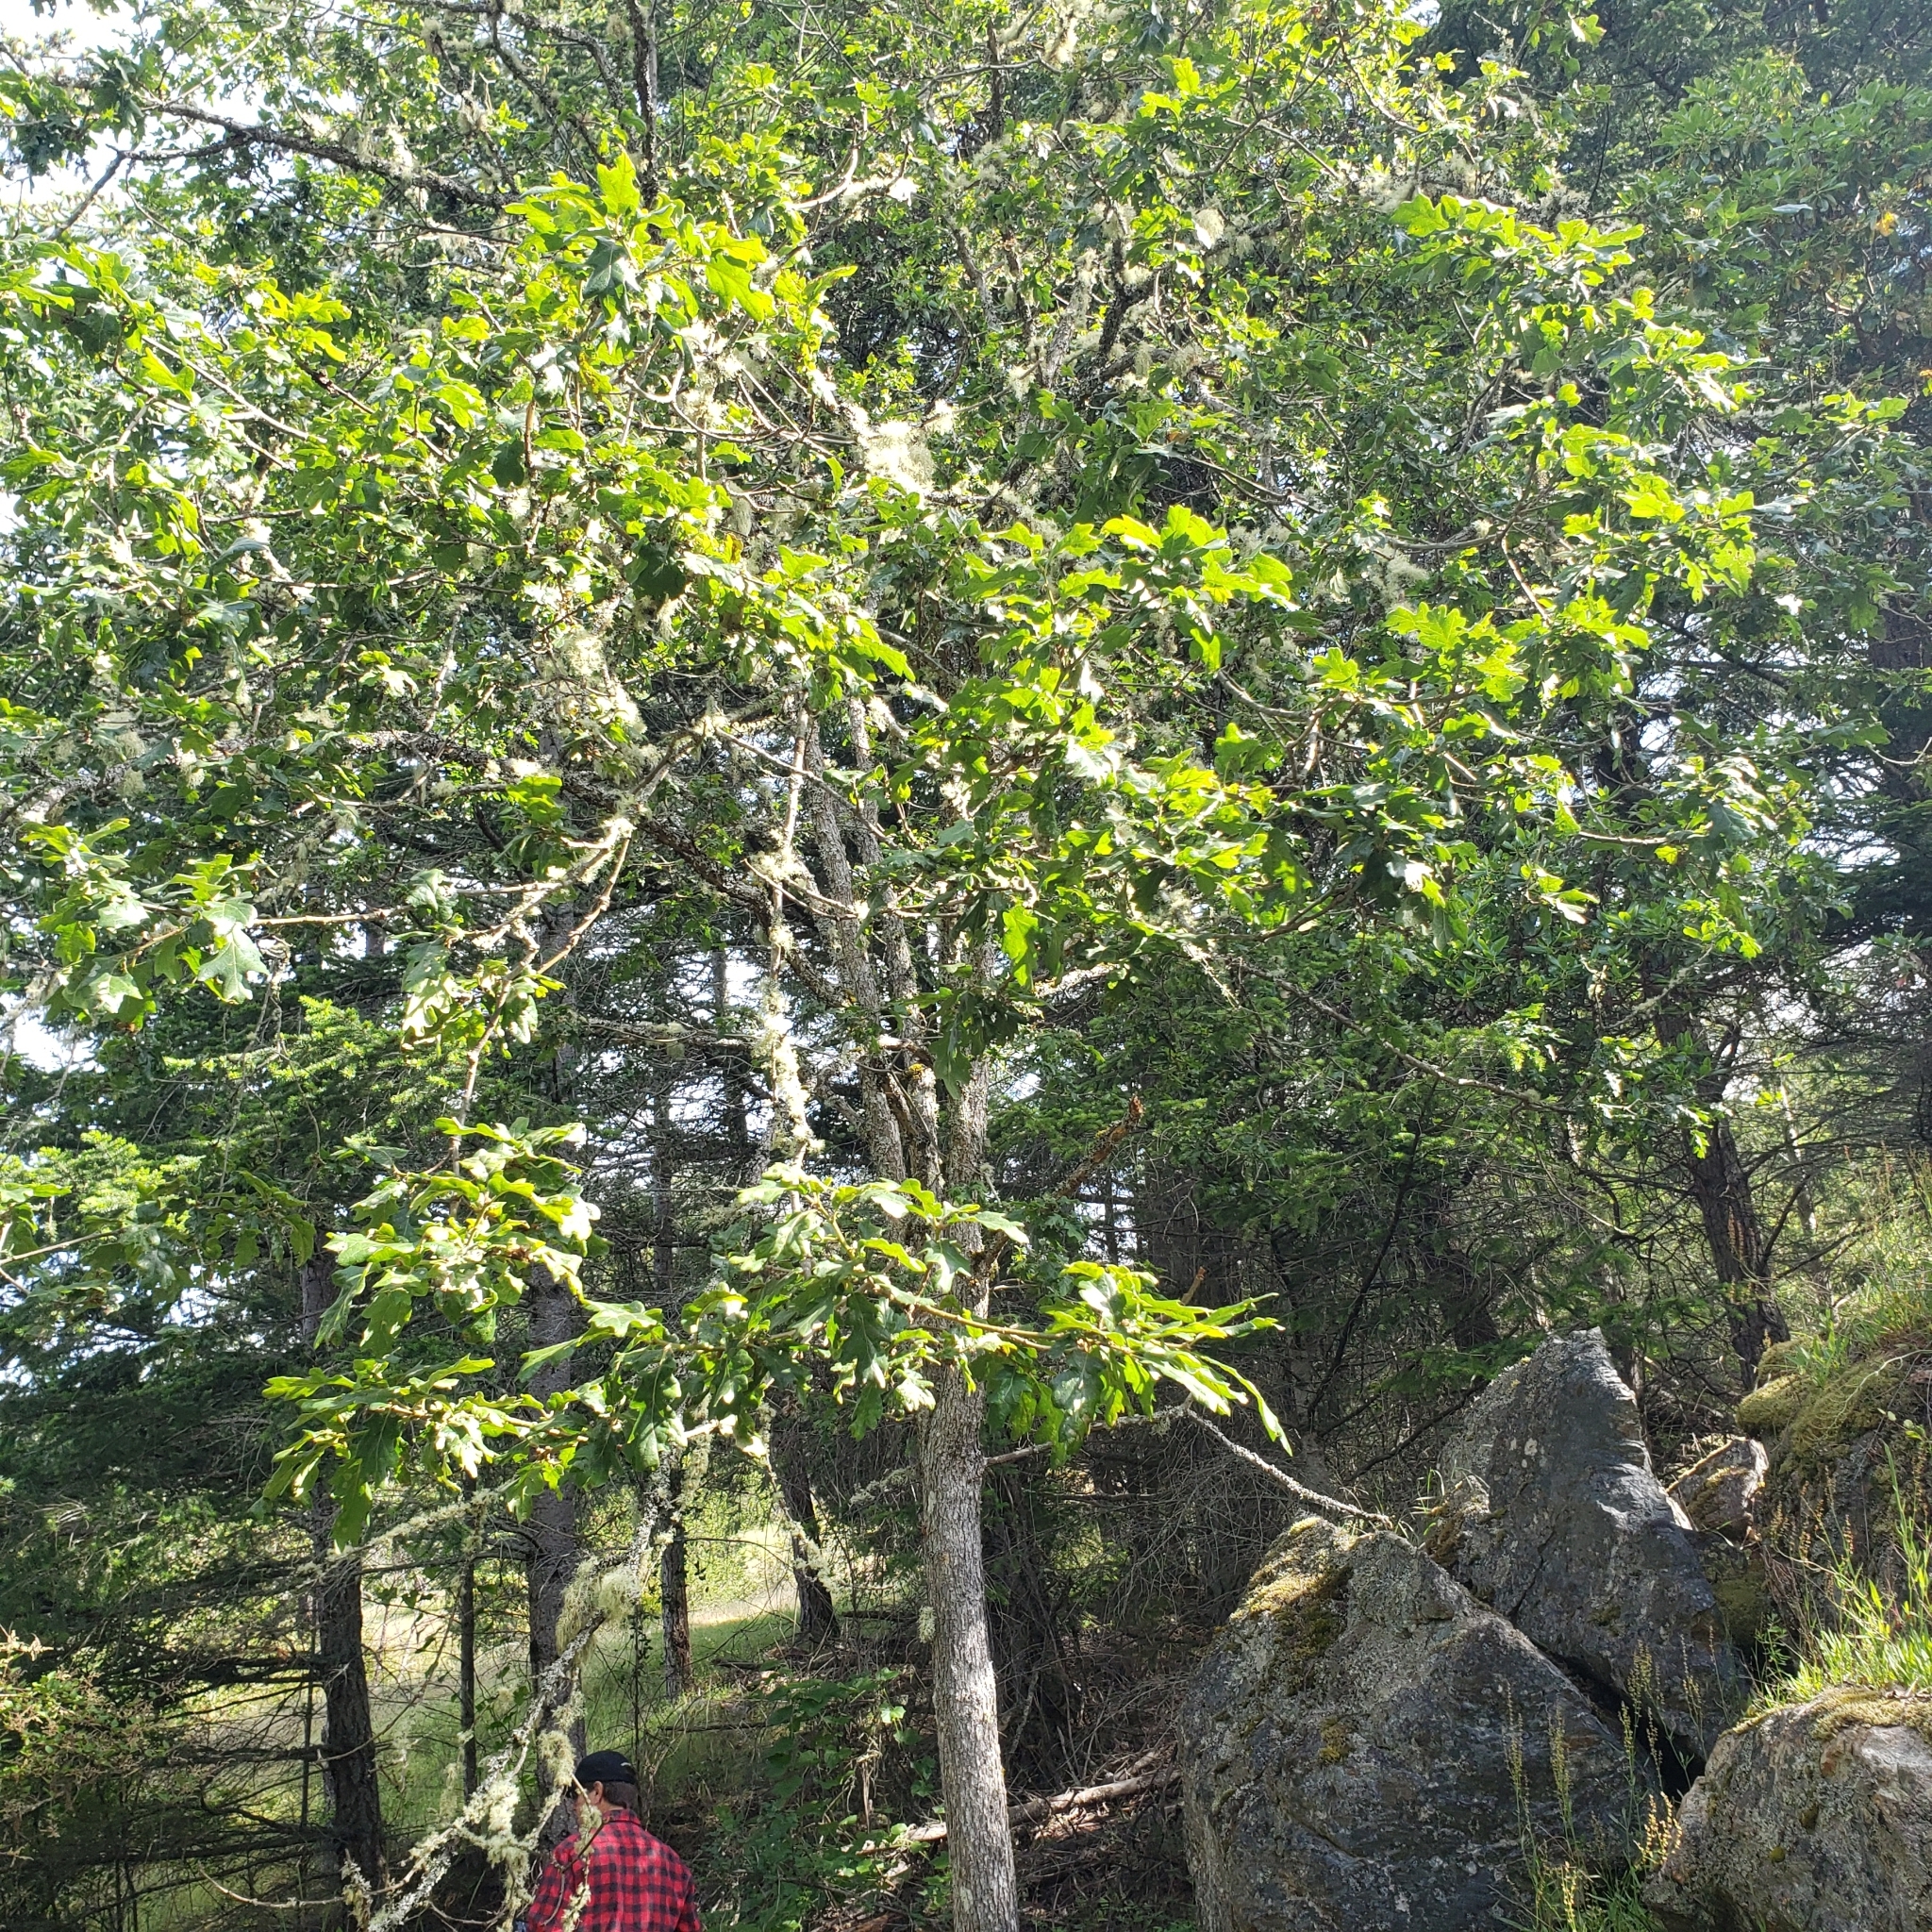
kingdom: Plantae
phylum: Tracheophyta
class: Magnoliopsida
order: Fagales
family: Fagaceae
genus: Quercus
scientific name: Quercus garryana
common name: Garry oak
